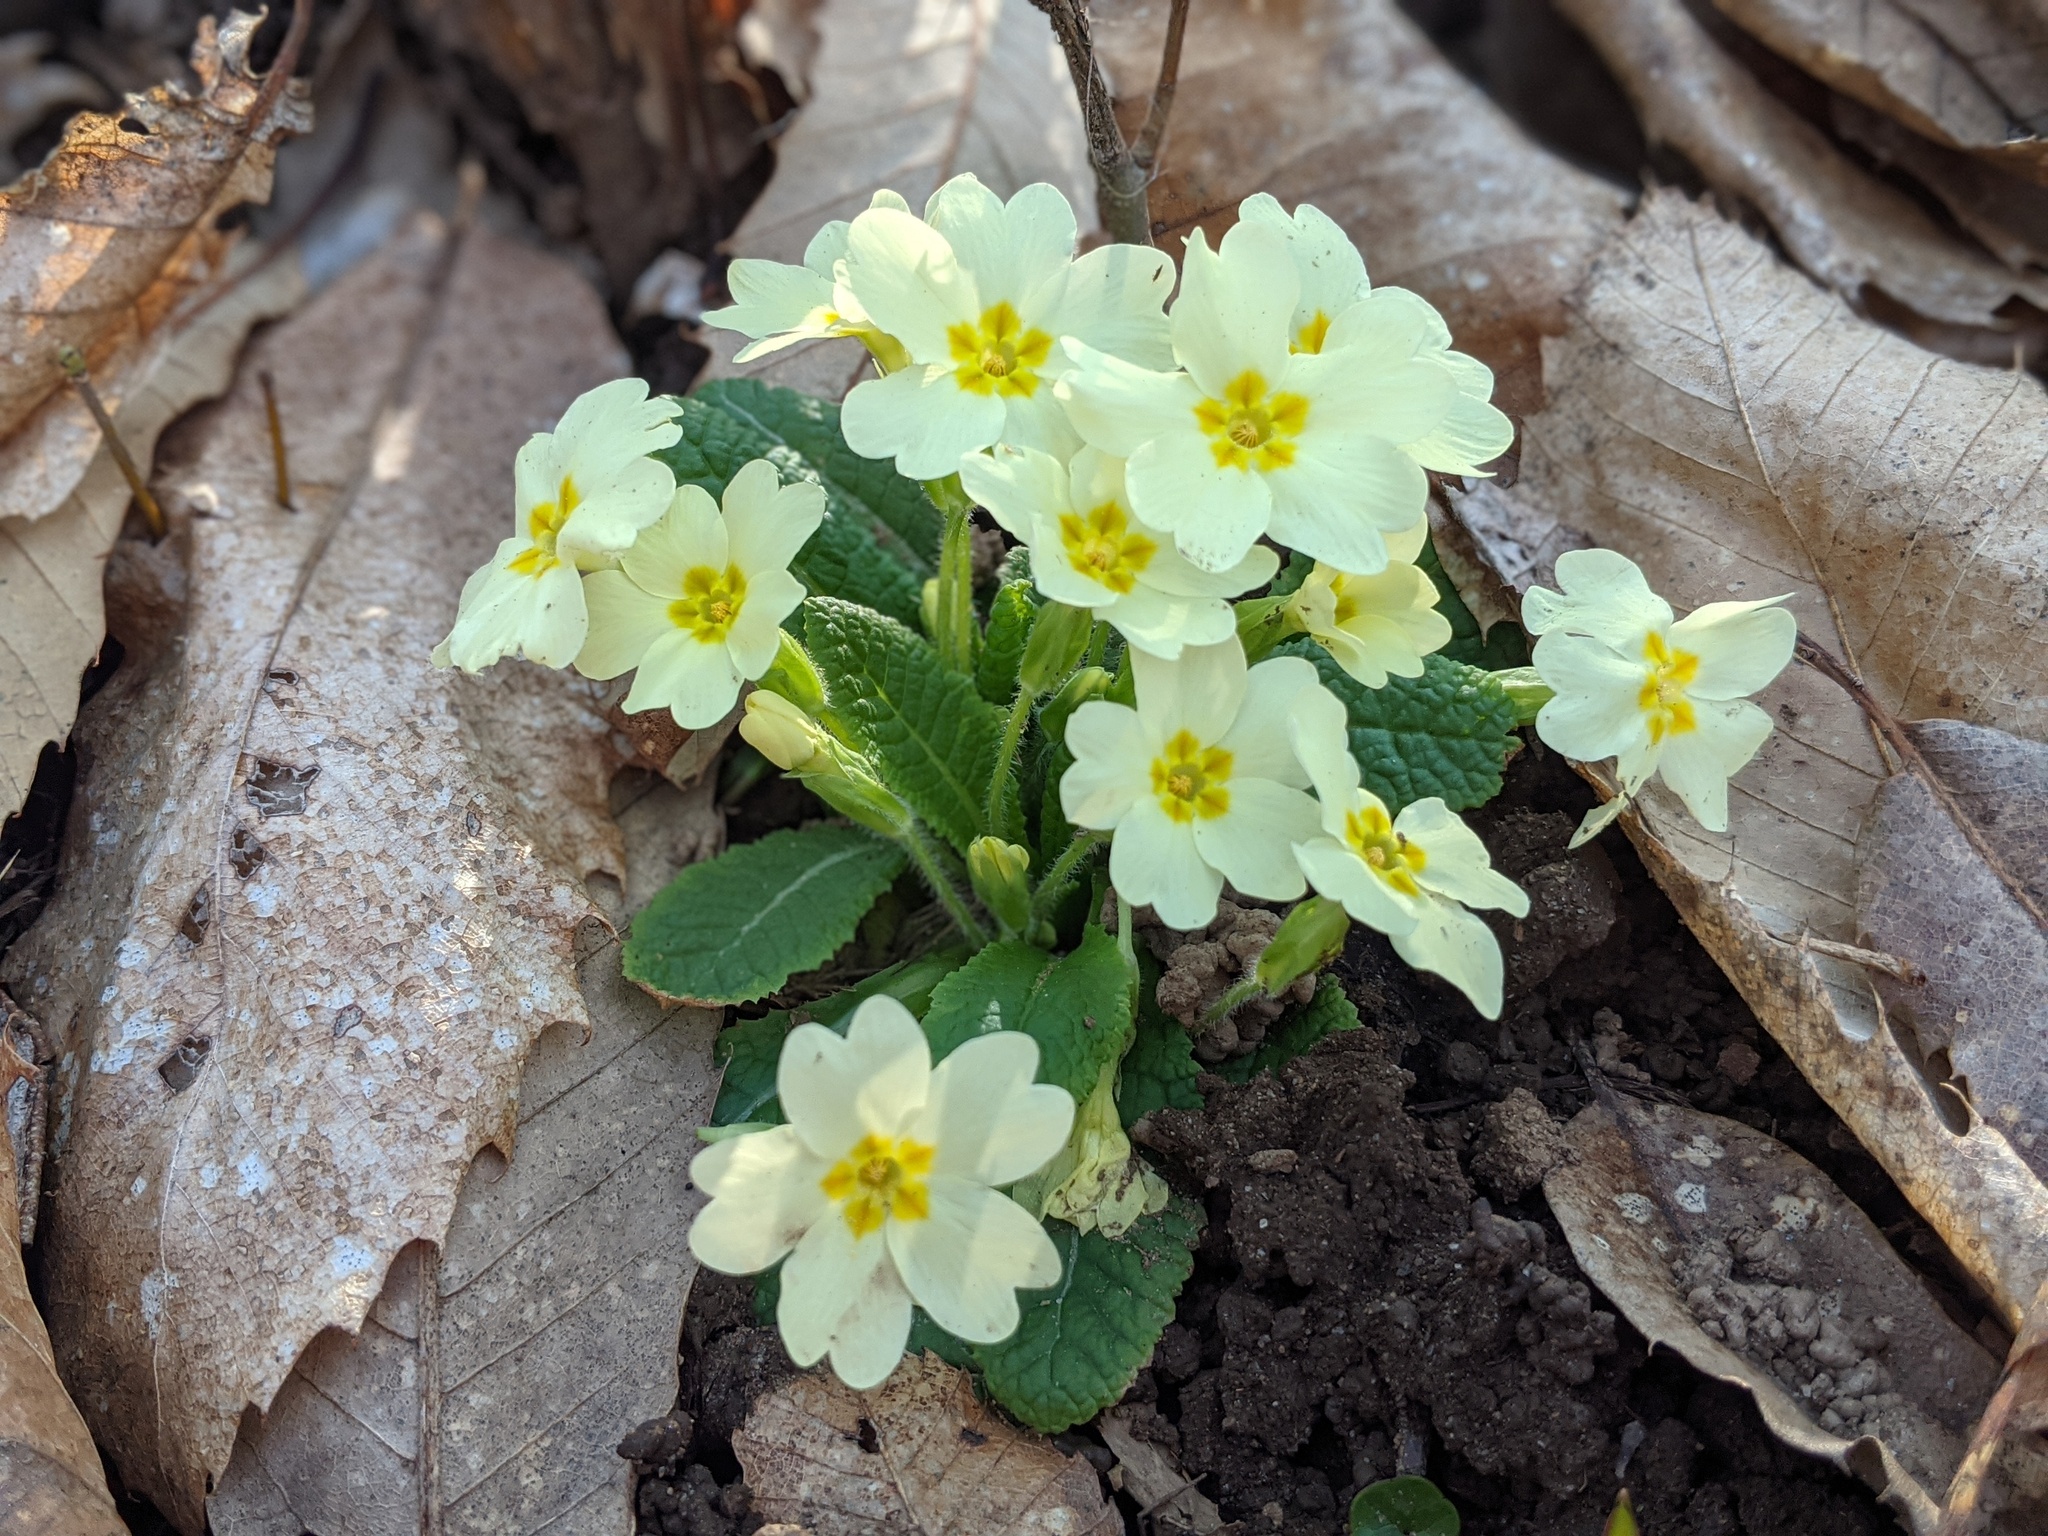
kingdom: Plantae
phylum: Tracheophyta
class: Magnoliopsida
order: Ericales
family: Primulaceae
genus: Primula
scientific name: Primula vulgaris
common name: Primrose
